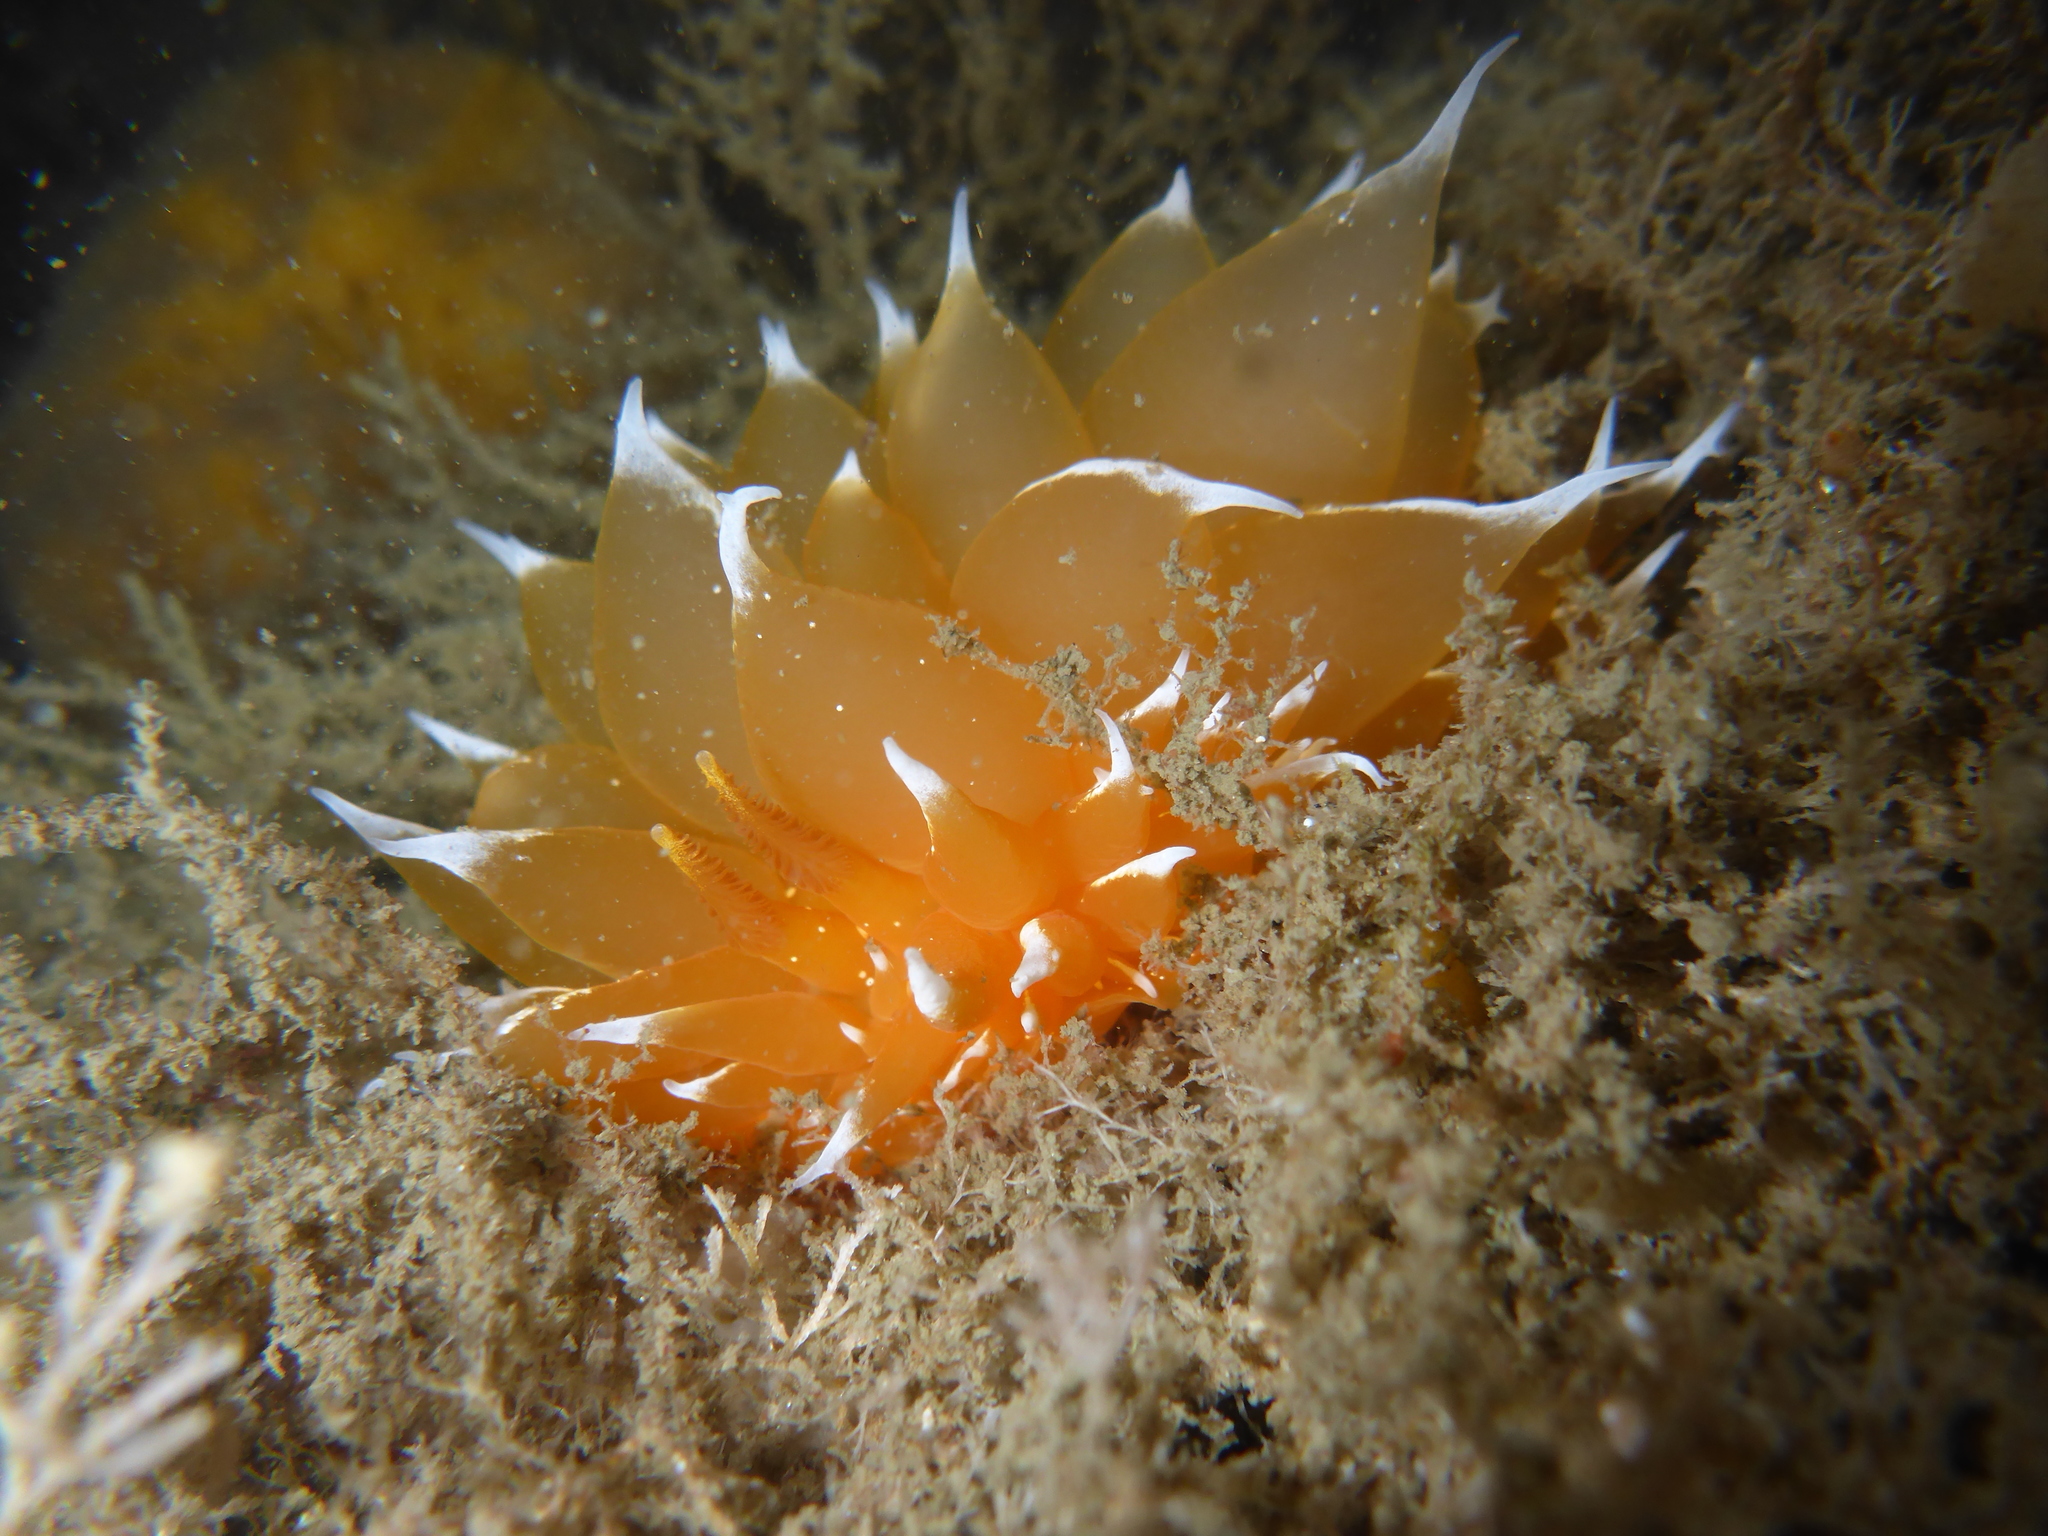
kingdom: Animalia
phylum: Mollusca
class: Gastropoda
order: Nudibranchia
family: Dironidae
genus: Dirona
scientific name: Dirona pellucida
